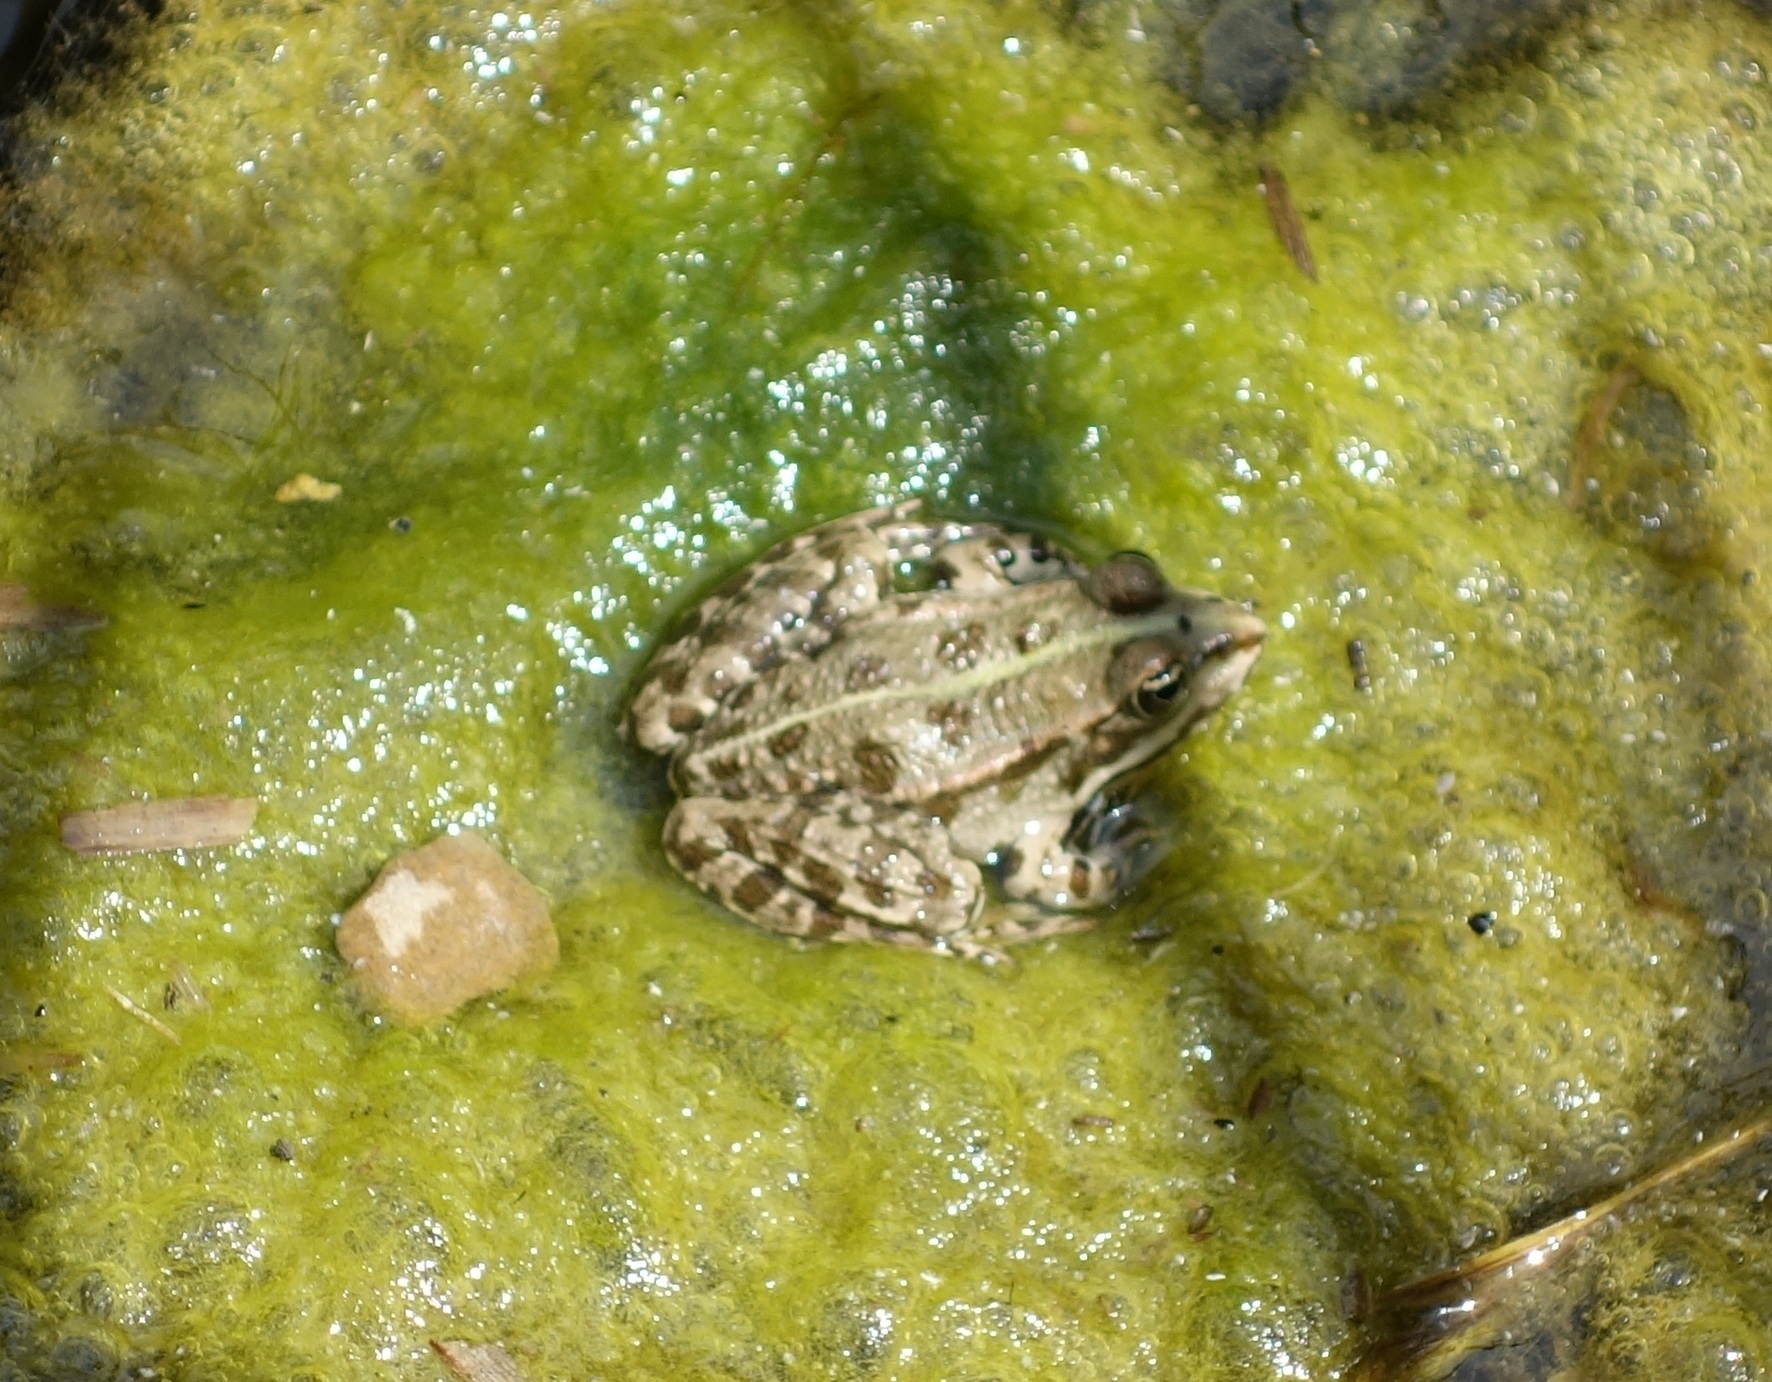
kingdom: Animalia
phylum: Chordata
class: Amphibia
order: Anura
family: Ranidae
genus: Pelophylax
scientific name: Pelophylax ridibundus
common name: Marsh frog
